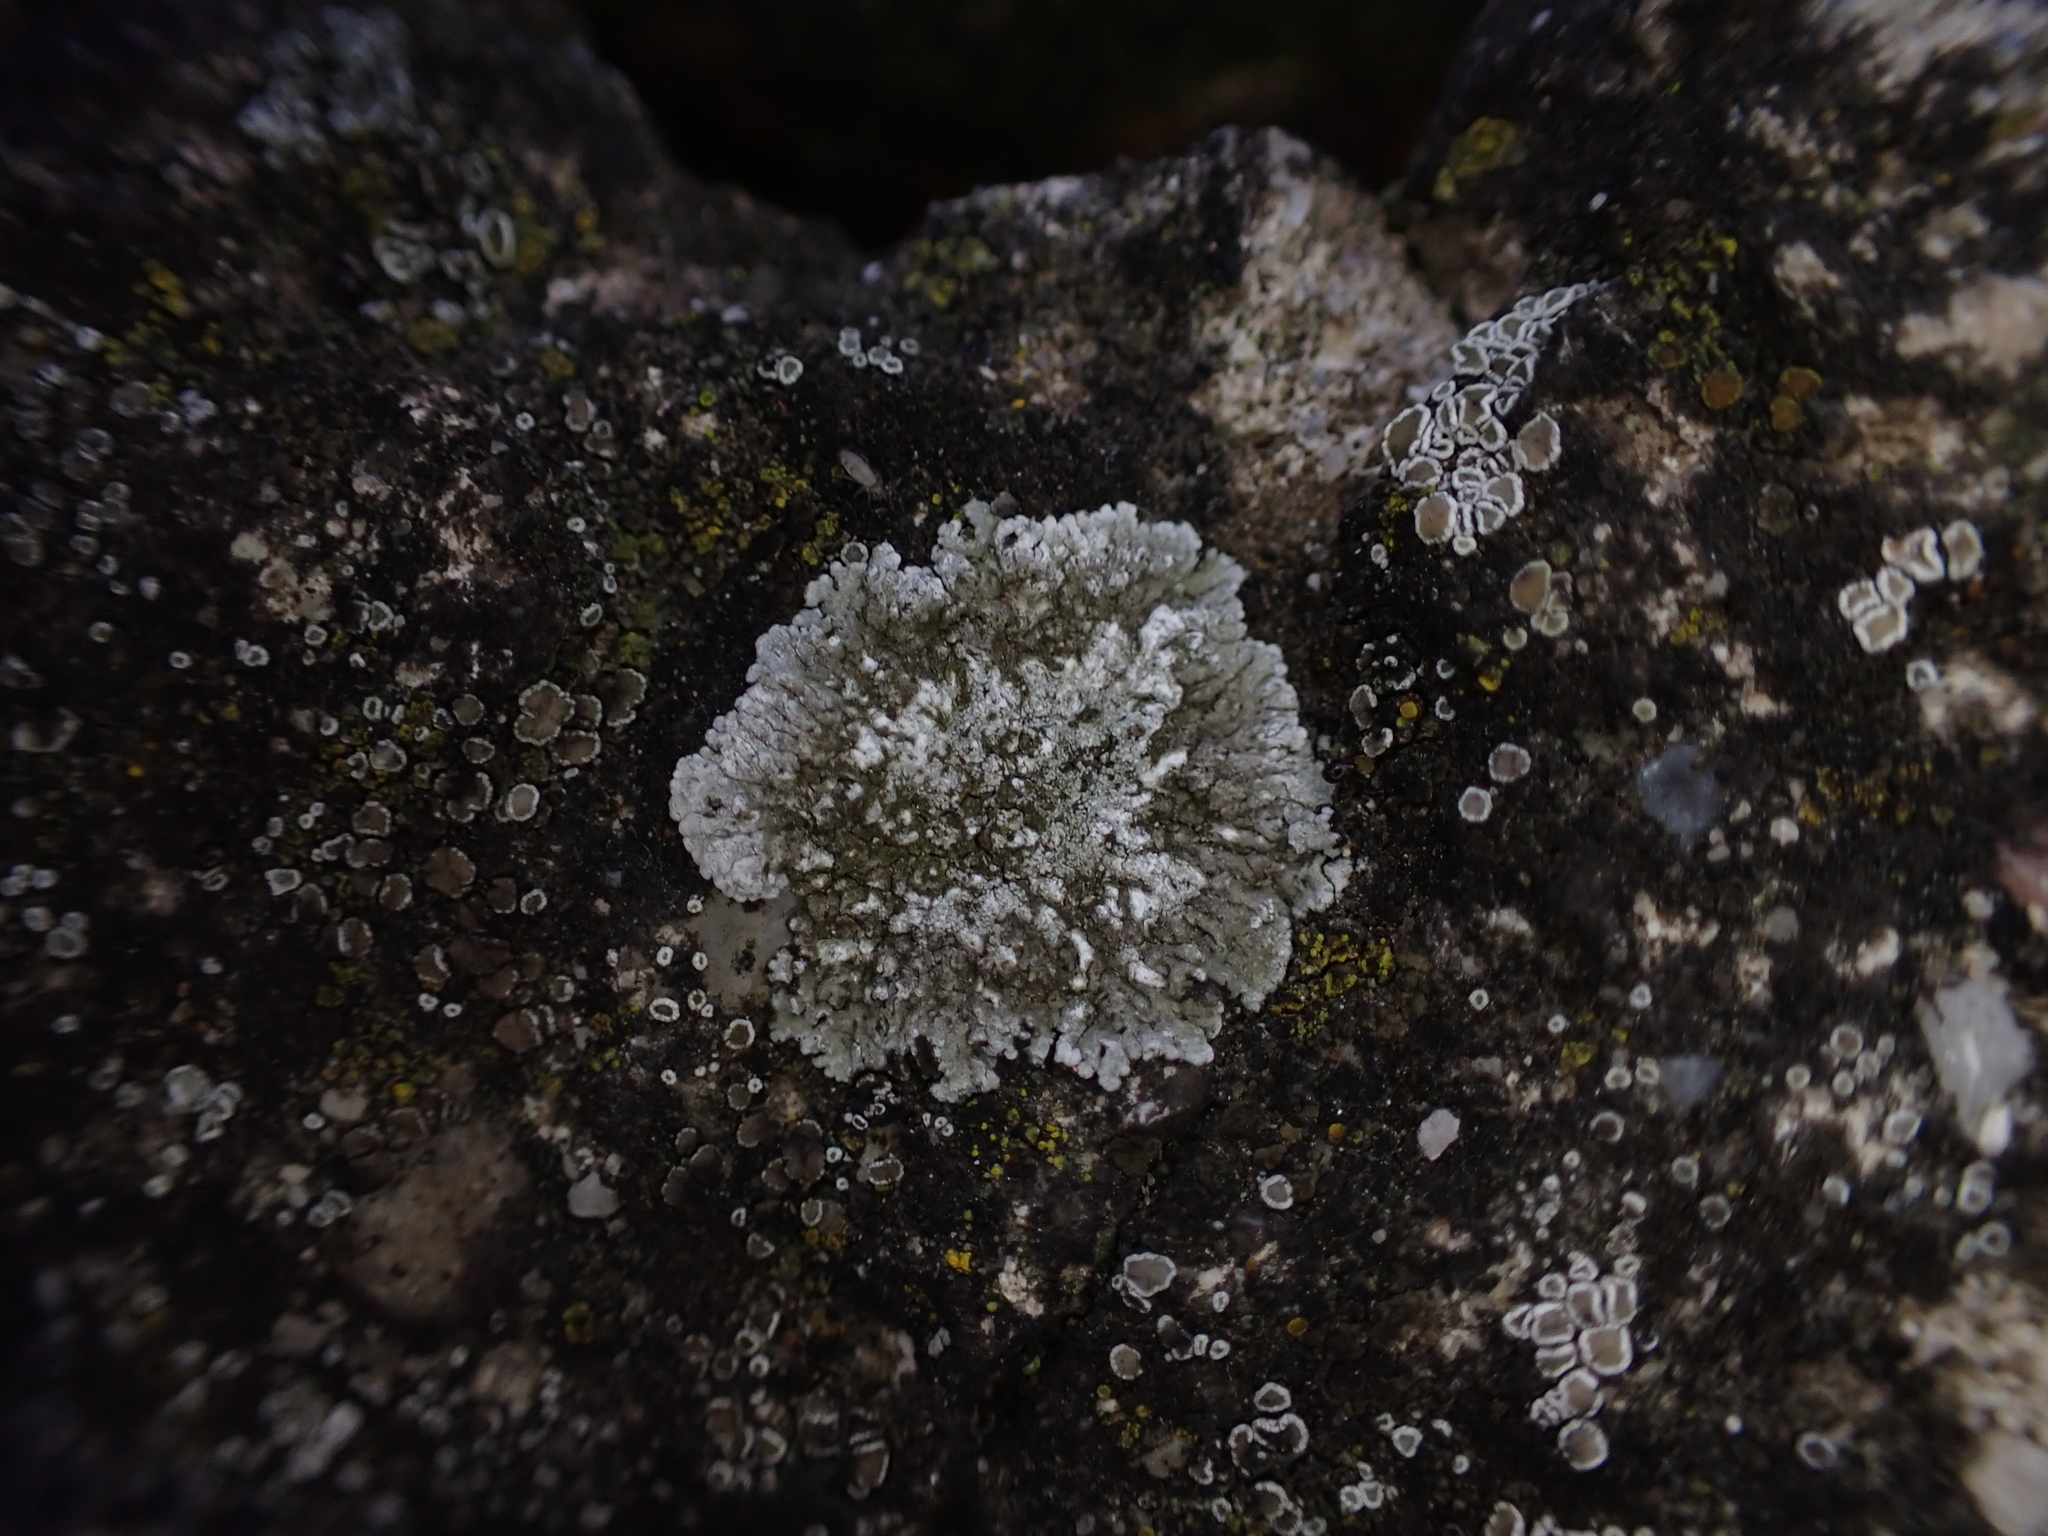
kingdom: Fungi
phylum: Ascomycota
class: Lecanoromycetes
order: Teloschistales
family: Teloschistaceae
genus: Kuettlingeria
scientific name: Kuettlingeria teicholyta
